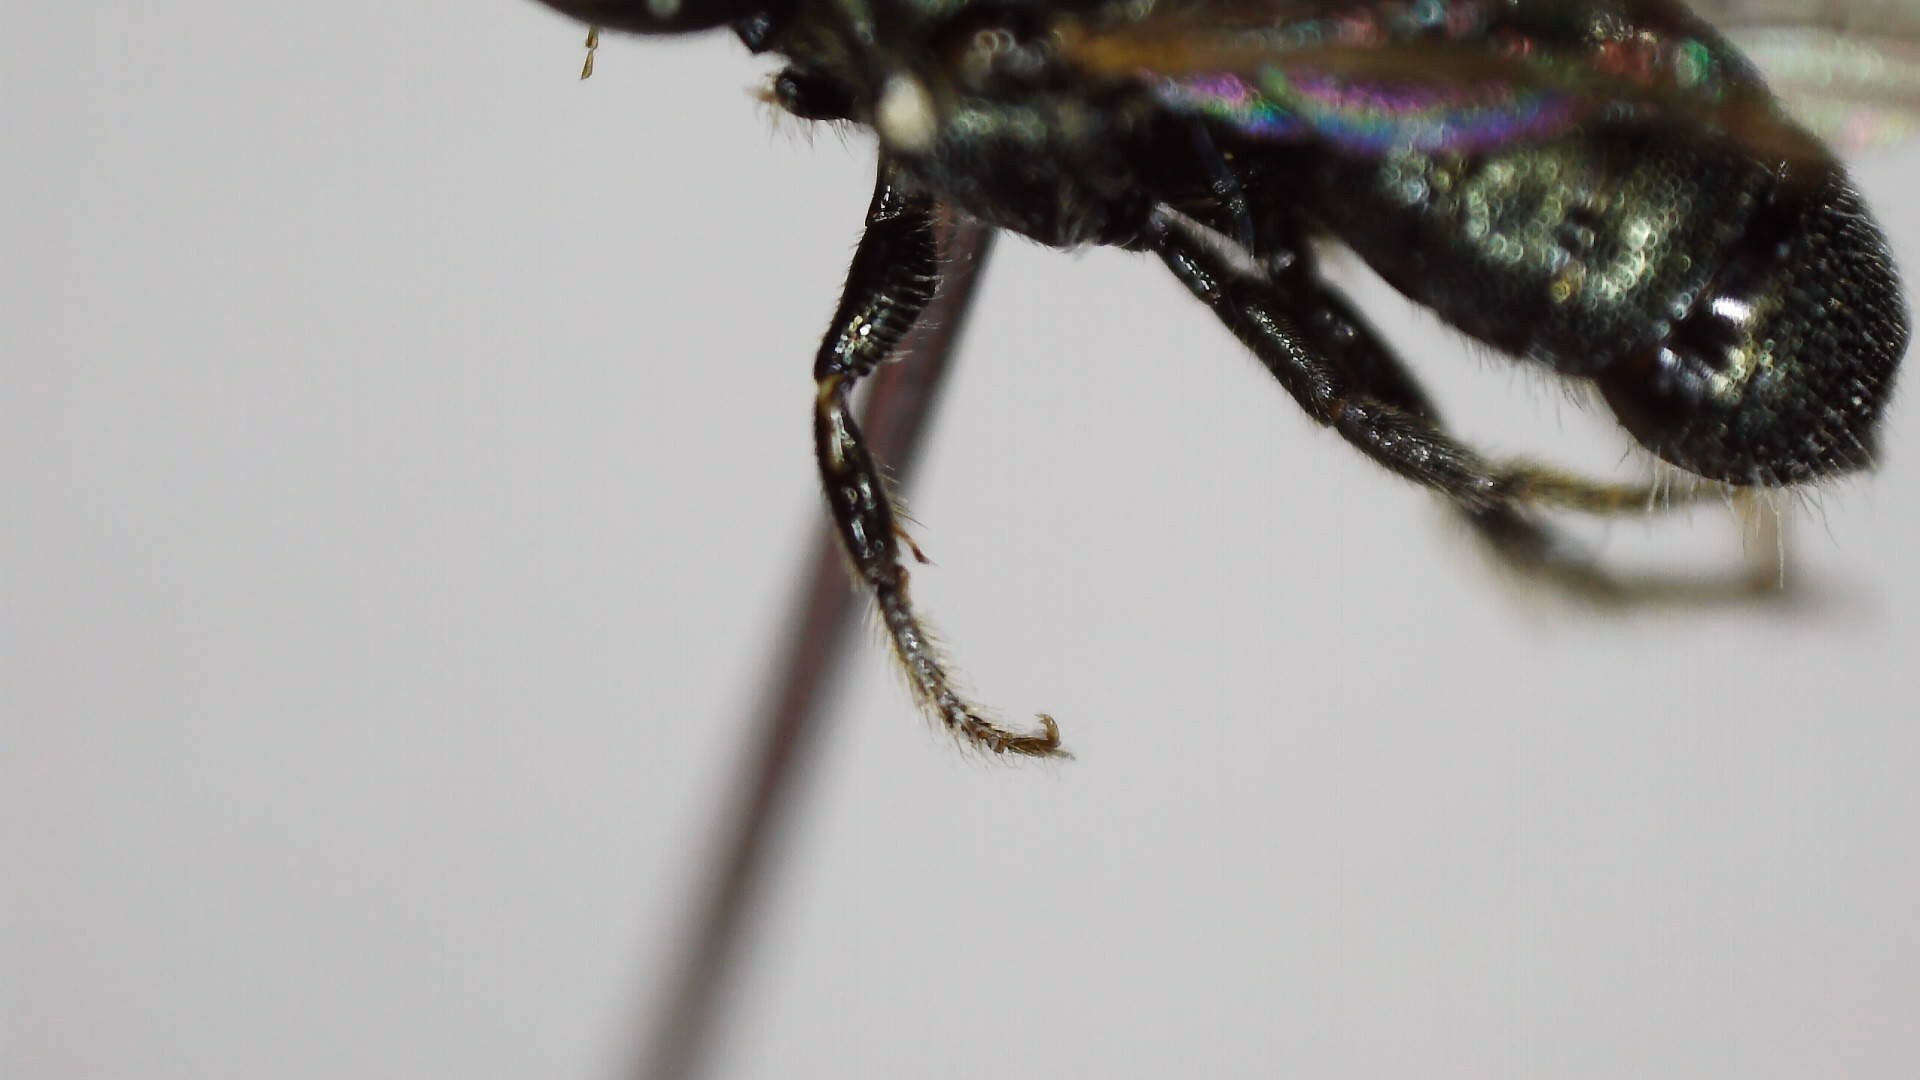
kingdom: Animalia
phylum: Arthropoda
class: Insecta
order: Hymenoptera
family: Apidae
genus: Zadontomerus
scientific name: Zadontomerus
